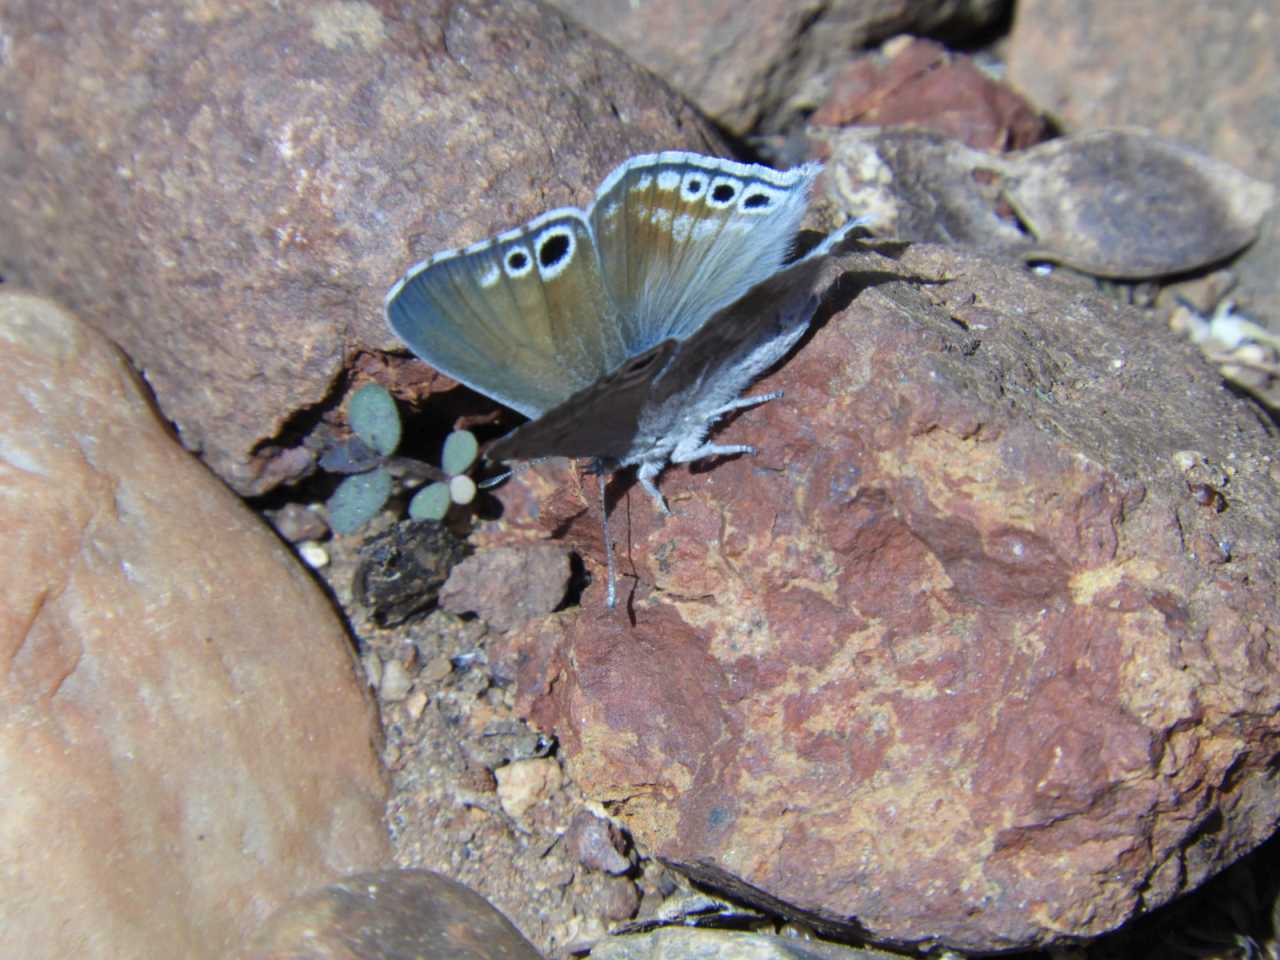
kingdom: Animalia
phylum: Arthropoda
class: Insecta
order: Lepidoptera
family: Lycaenidae
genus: Leptomyrina
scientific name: Leptomyrina gorgias
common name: Common black-eye
